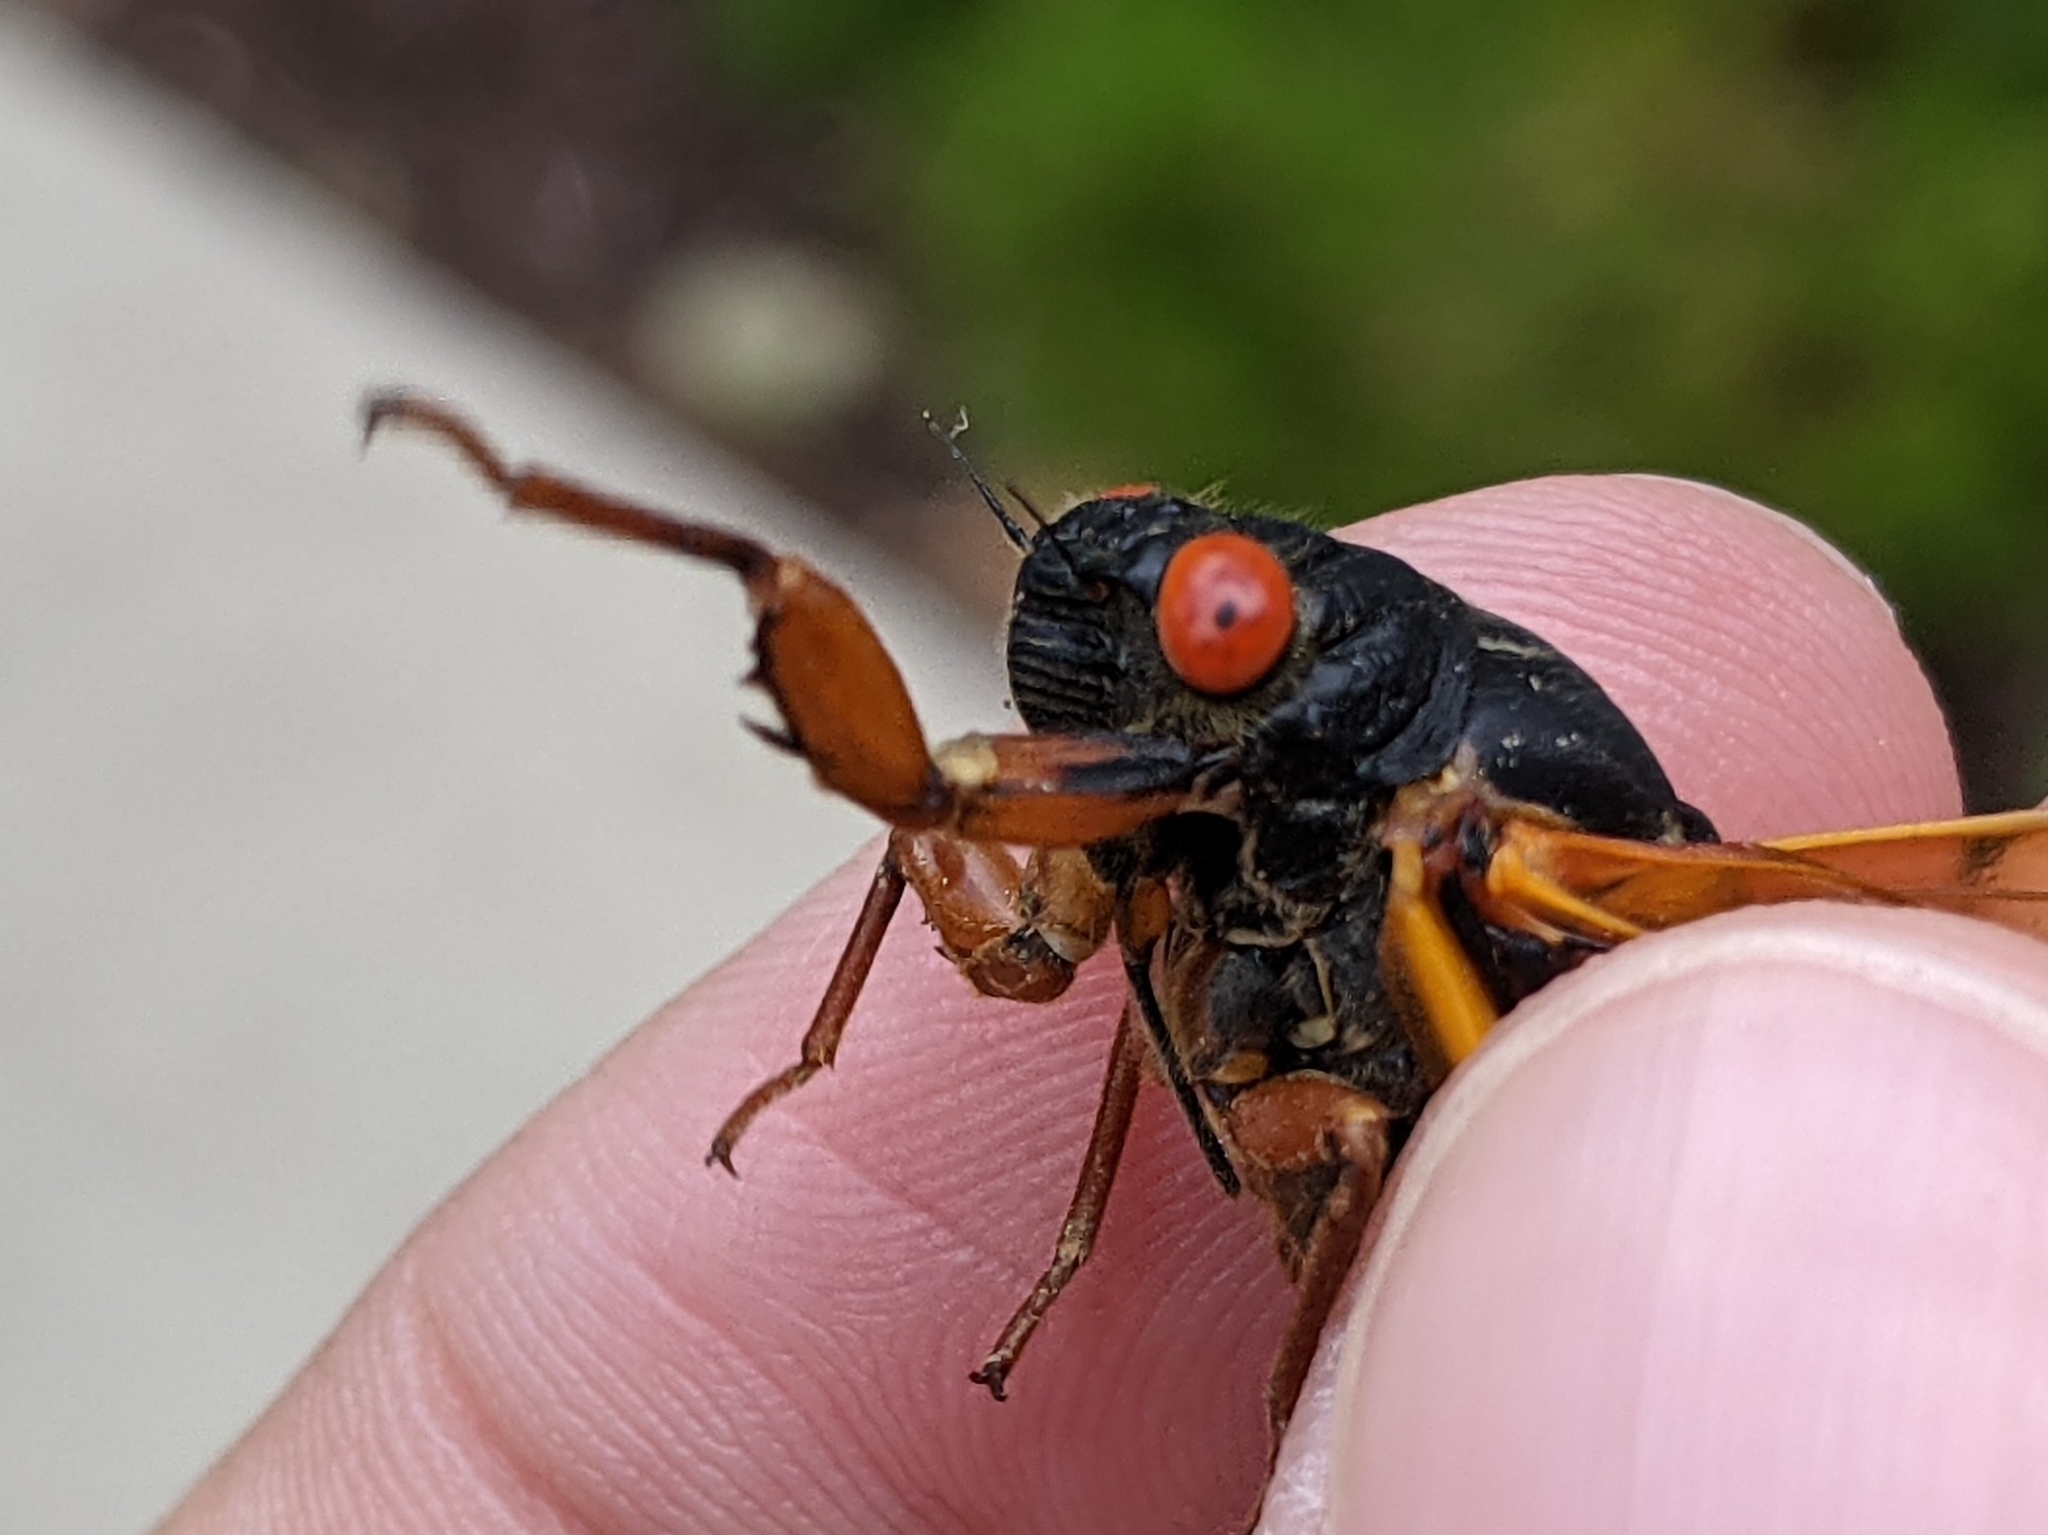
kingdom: Animalia
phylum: Arthropoda
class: Insecta
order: Hemiptera
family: Cicadidae
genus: Magicicada
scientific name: Magicicada septendecula
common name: Decula periodical cicada
